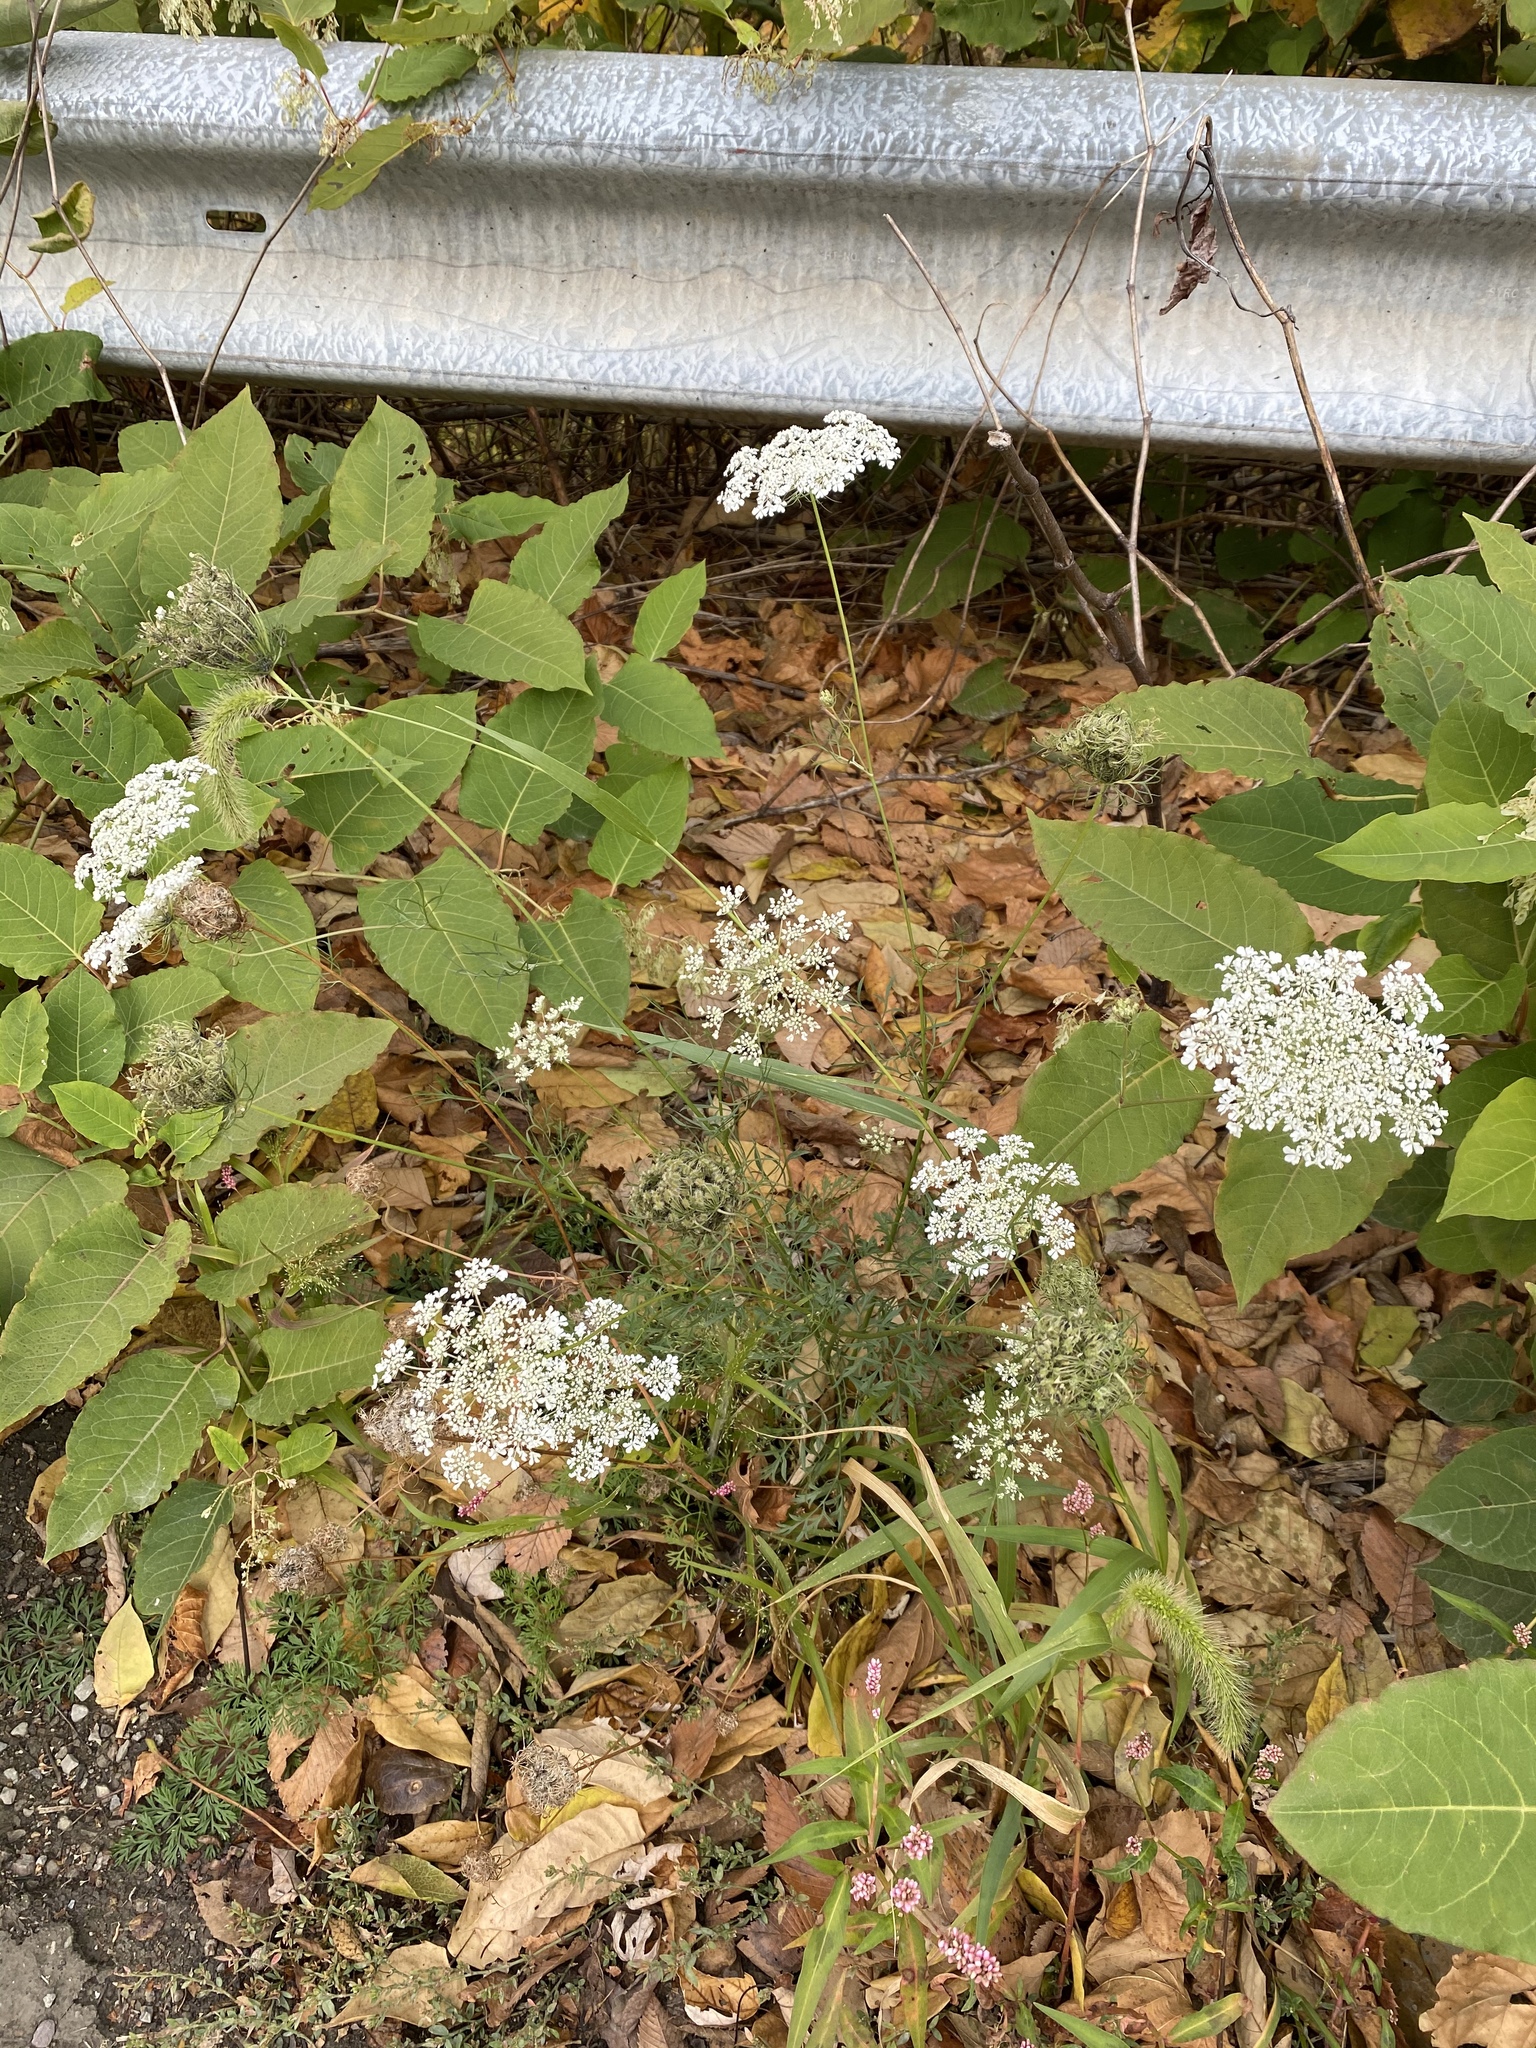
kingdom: Plantae
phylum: Tracheophyta
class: Magnoliopsida
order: Apiales
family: Apiaceae
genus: Daucus
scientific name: Daucus carota
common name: Wild carrot
